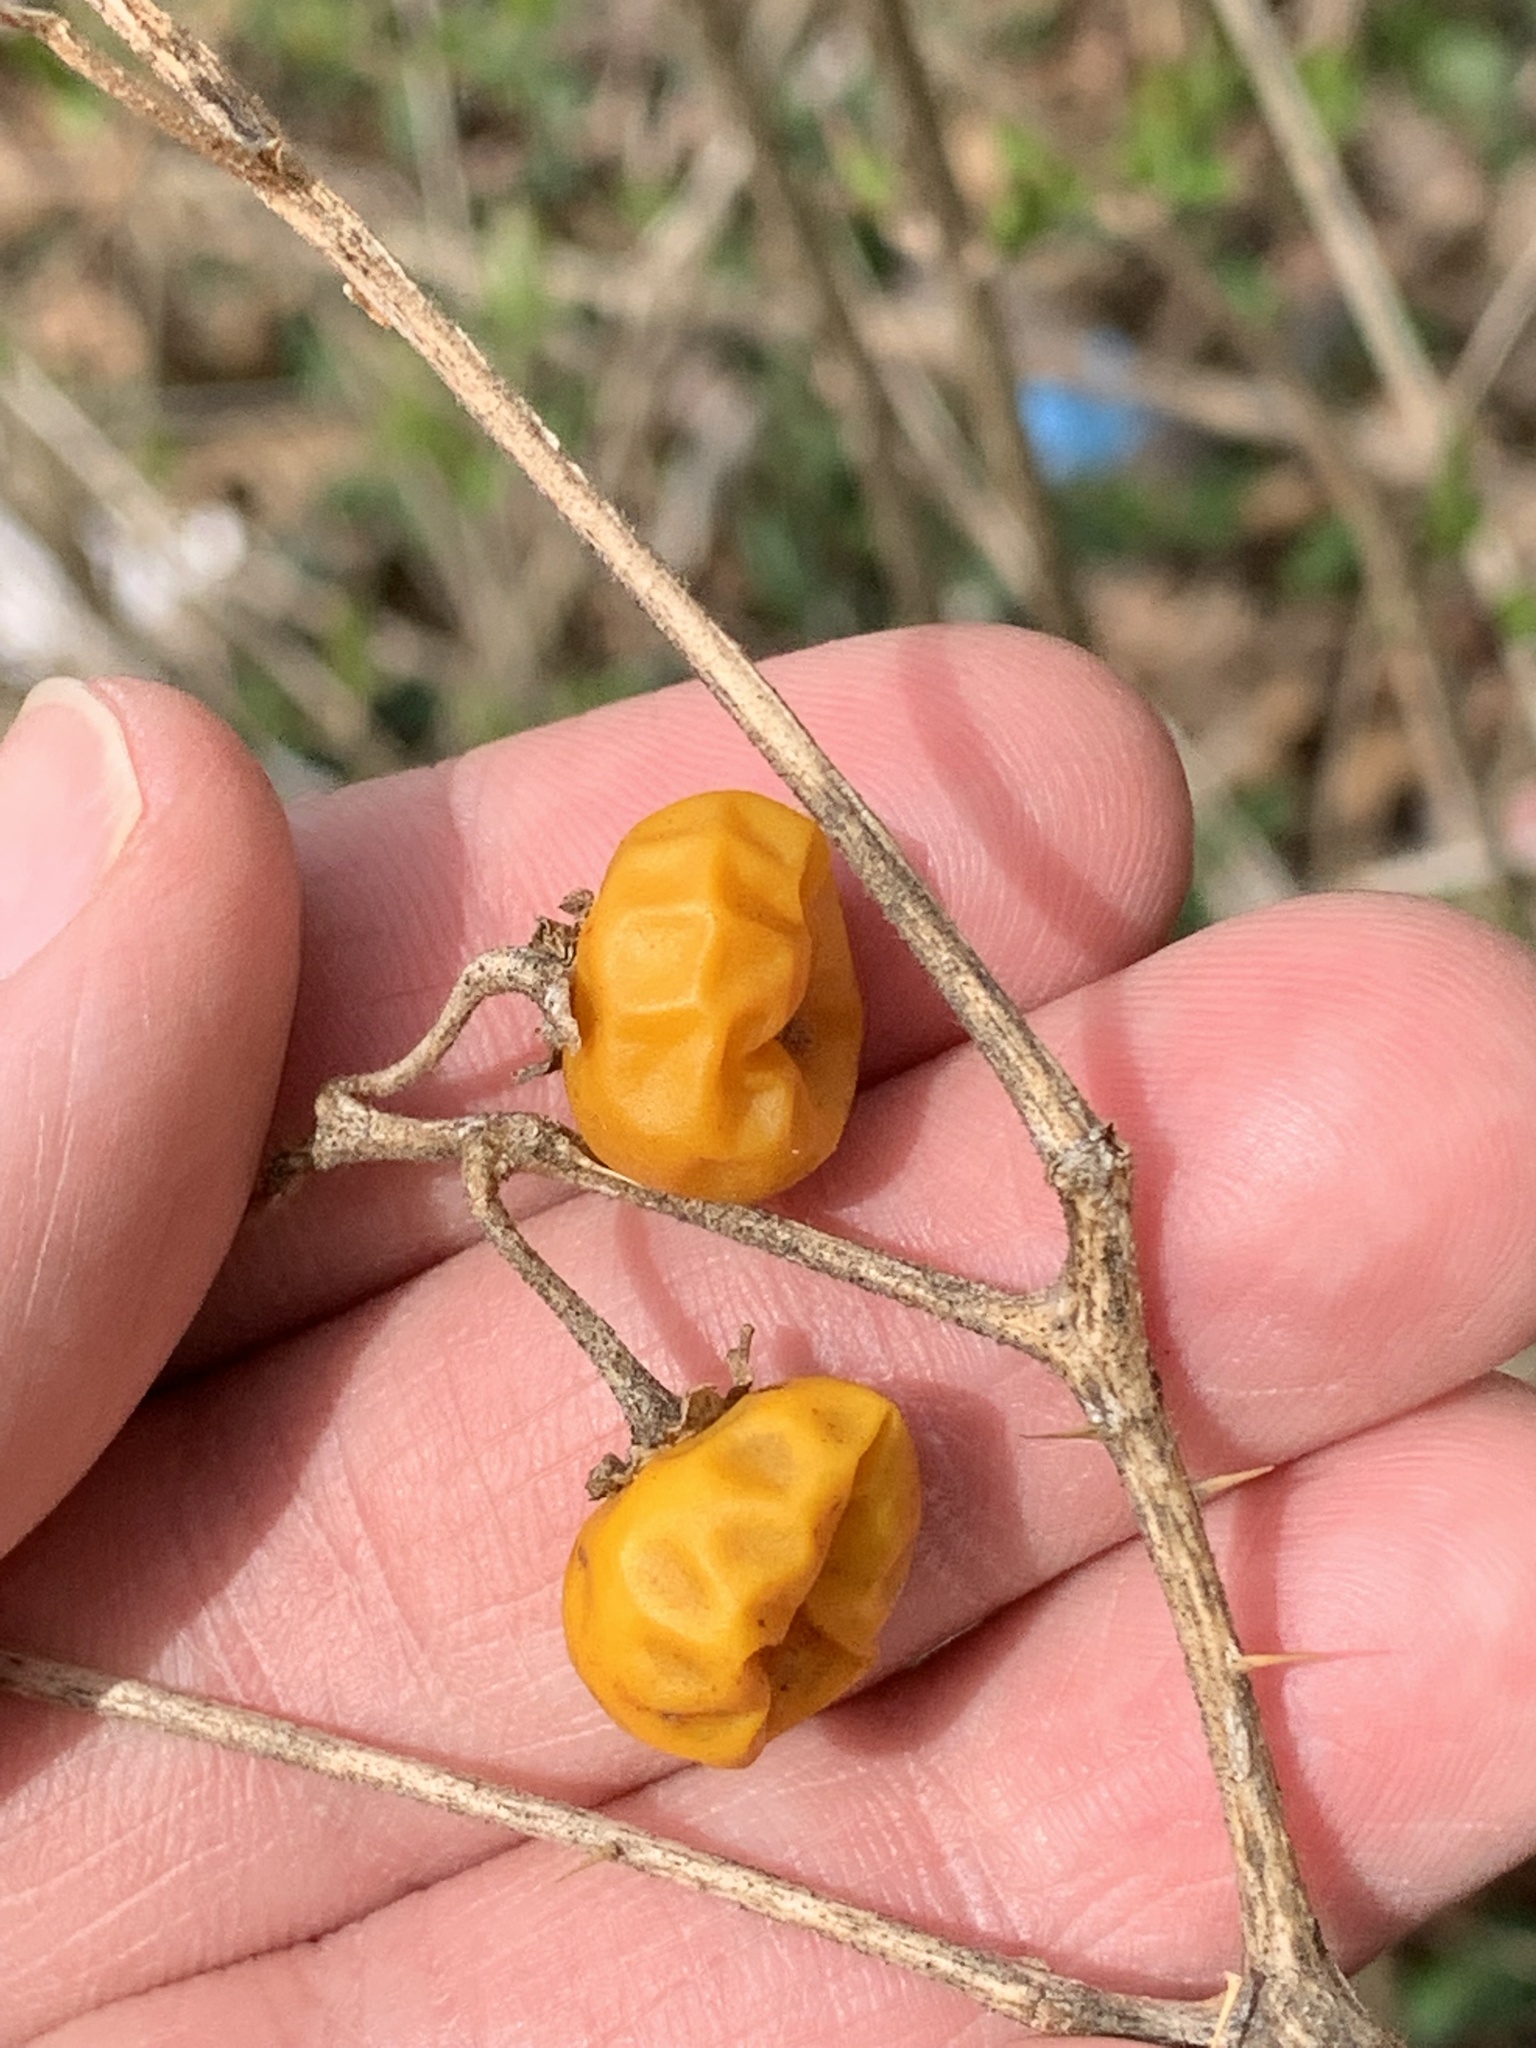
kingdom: Plantae
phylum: Tracheophyta
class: Magnoliopsida
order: Solanales
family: Solanaceae
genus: Solanum
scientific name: Solanum carolinense
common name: Horse-nettle
